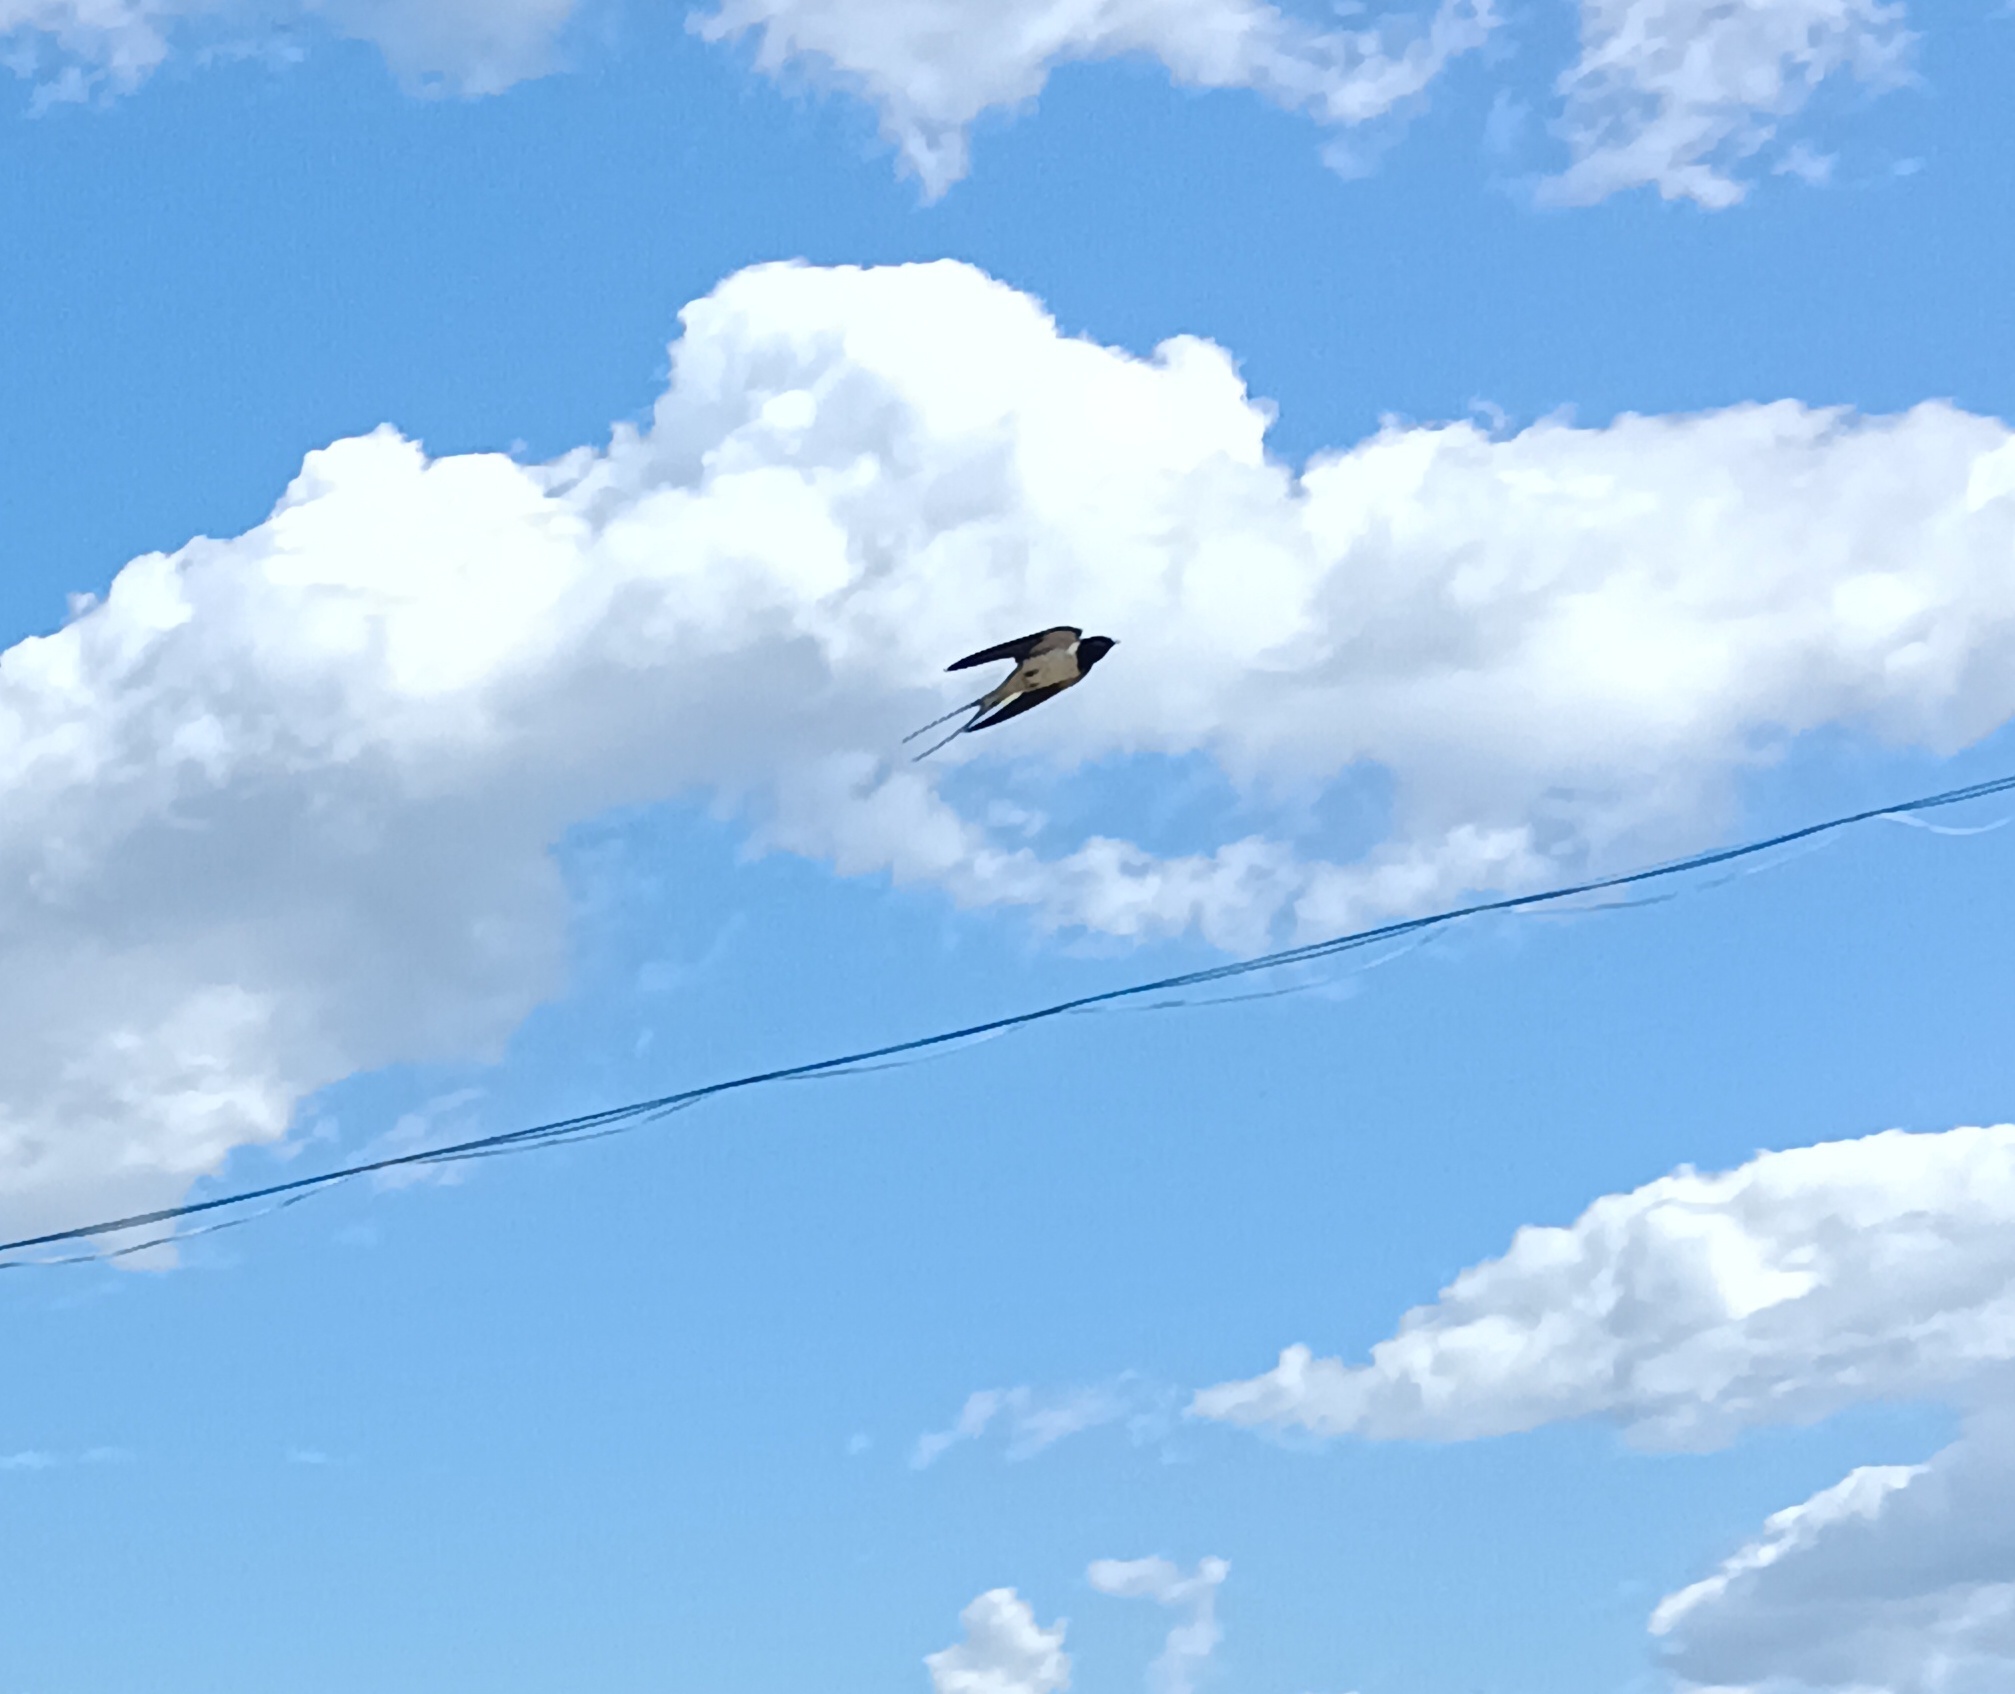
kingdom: Animalia
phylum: Chordata
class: Aves
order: Passeriformes
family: Hirundinidae
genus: Hirundo
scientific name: Hirundo rustica
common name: Barn swallow
